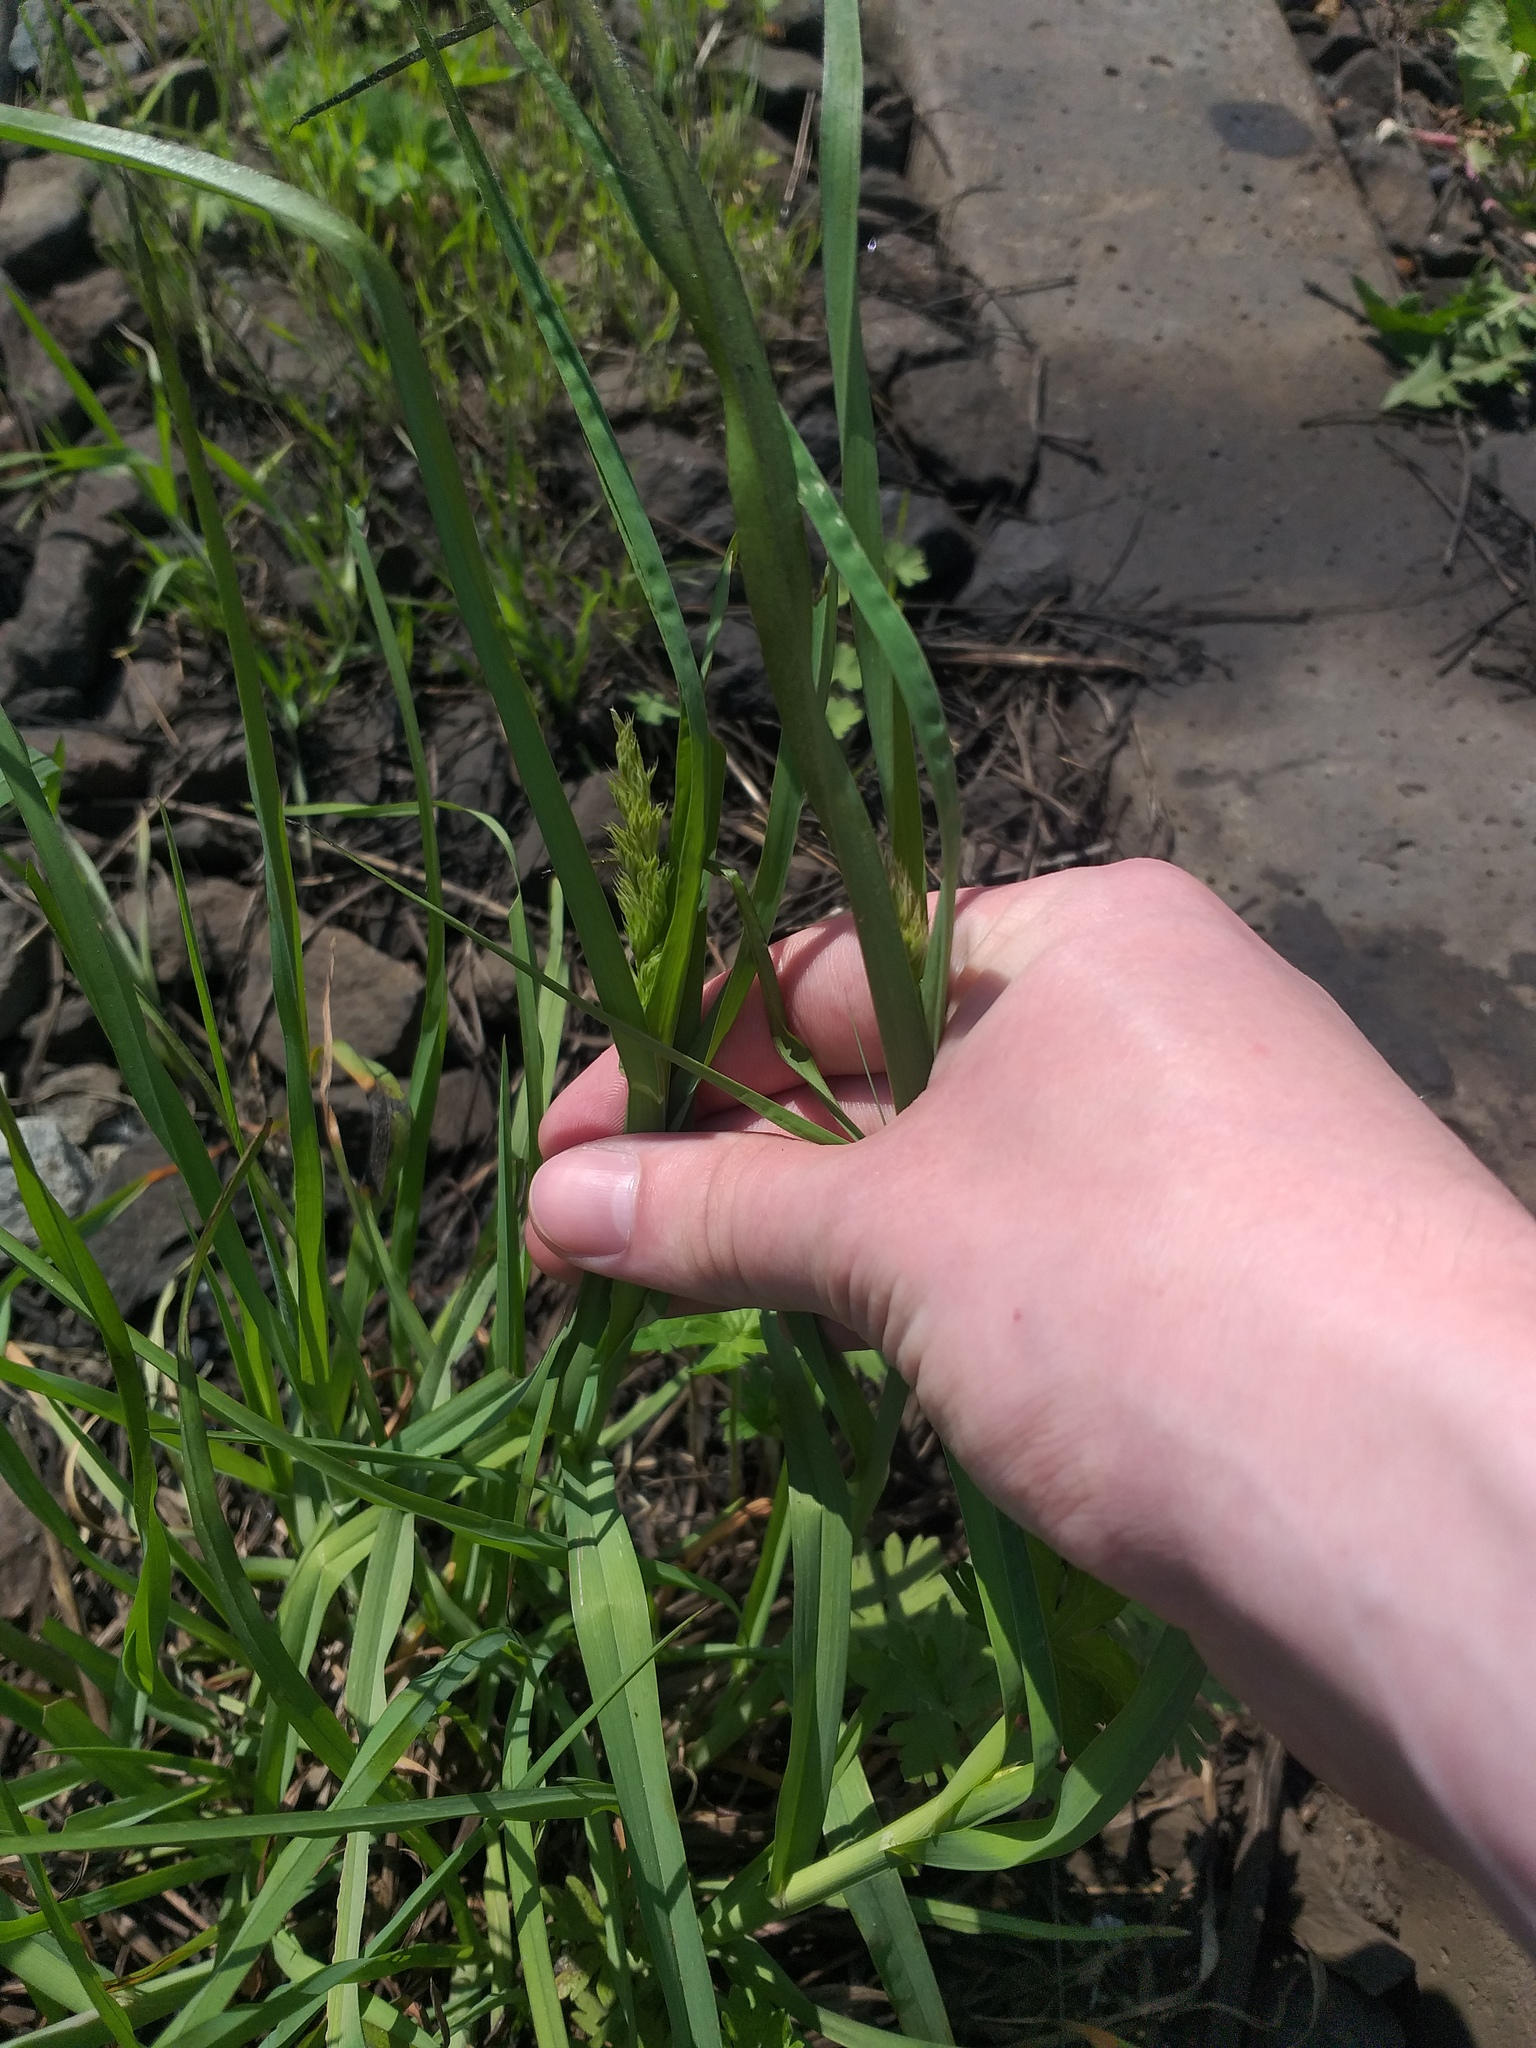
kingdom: Plantae
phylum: Tracheophyta
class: Liliopsida
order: Poales
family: Poaceae
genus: Dactylis
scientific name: Dactylis glomerata
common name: Orchardgrass
